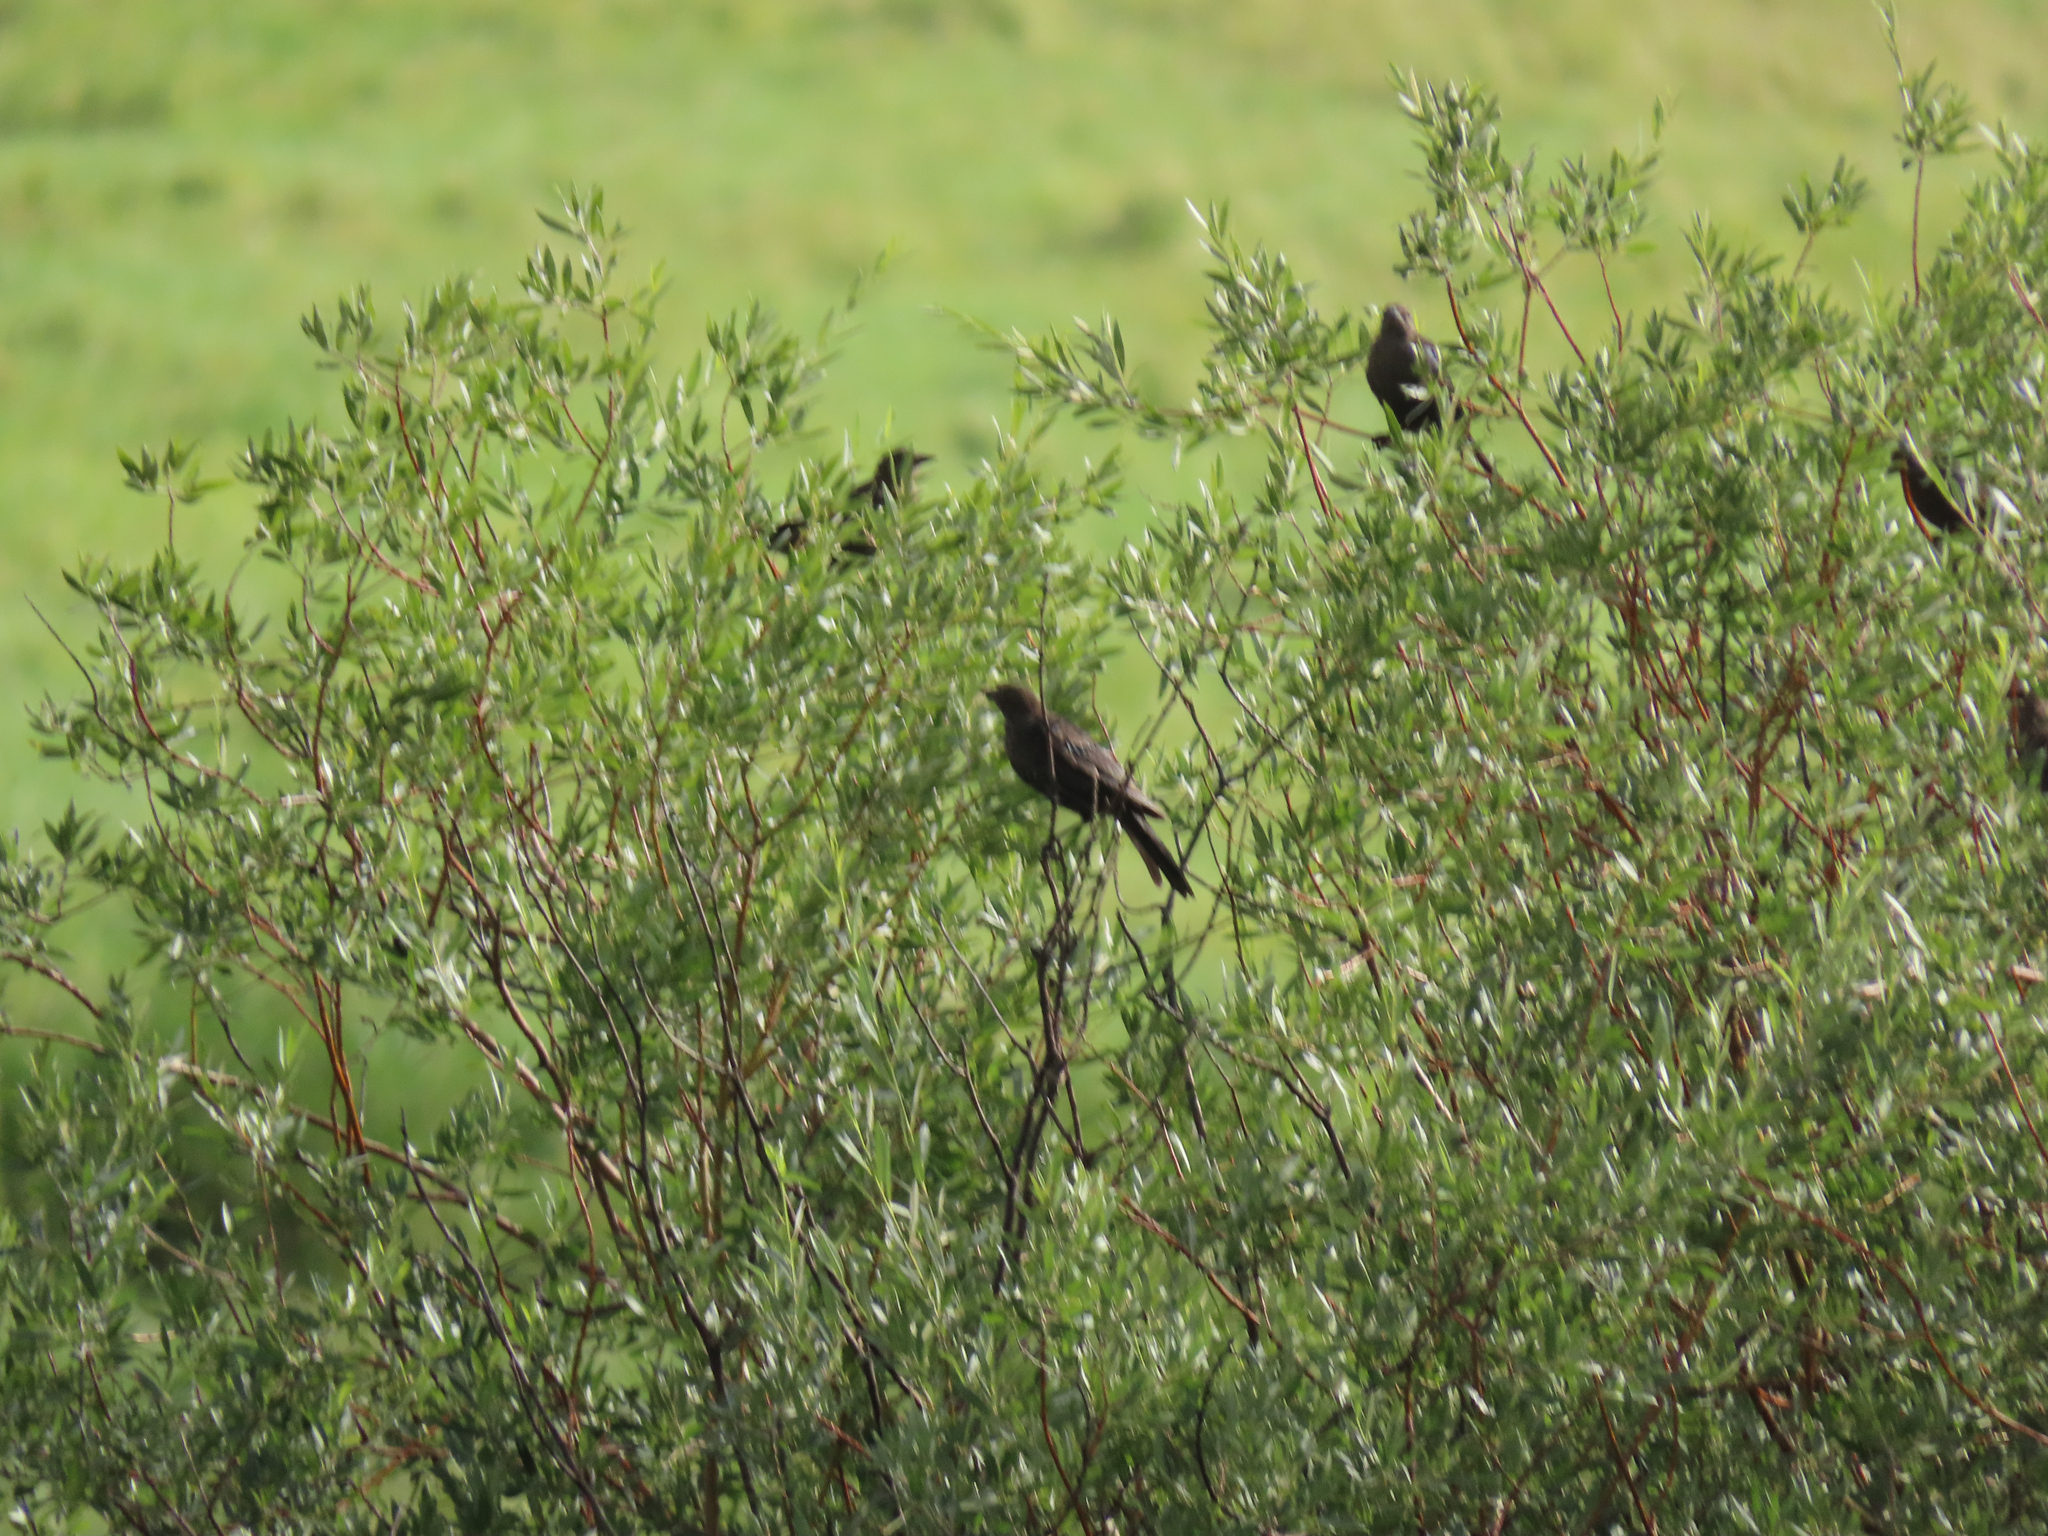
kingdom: Animalia
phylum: Chordata
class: Aves
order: Passeriformes
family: Icteridae
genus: Euphagus
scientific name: Euphagus cyanocephalus
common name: Brewer's blackbird
